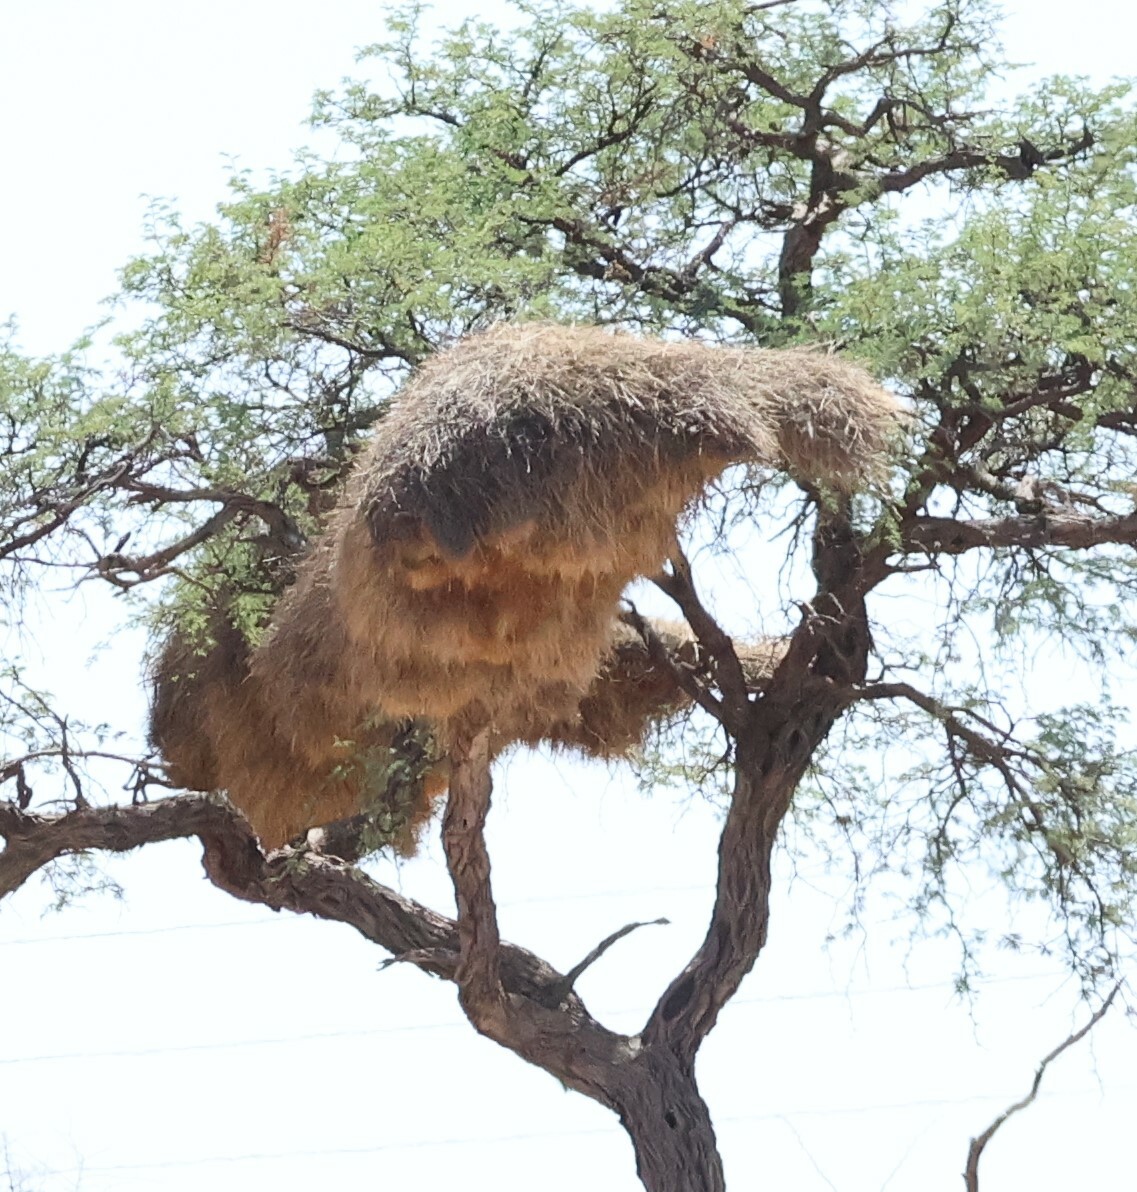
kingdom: Animalia
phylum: Chordata
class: Aves
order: Passeriformes
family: Passeridae
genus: Philetairus
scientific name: Philetairus socius
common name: Sociable weaver
